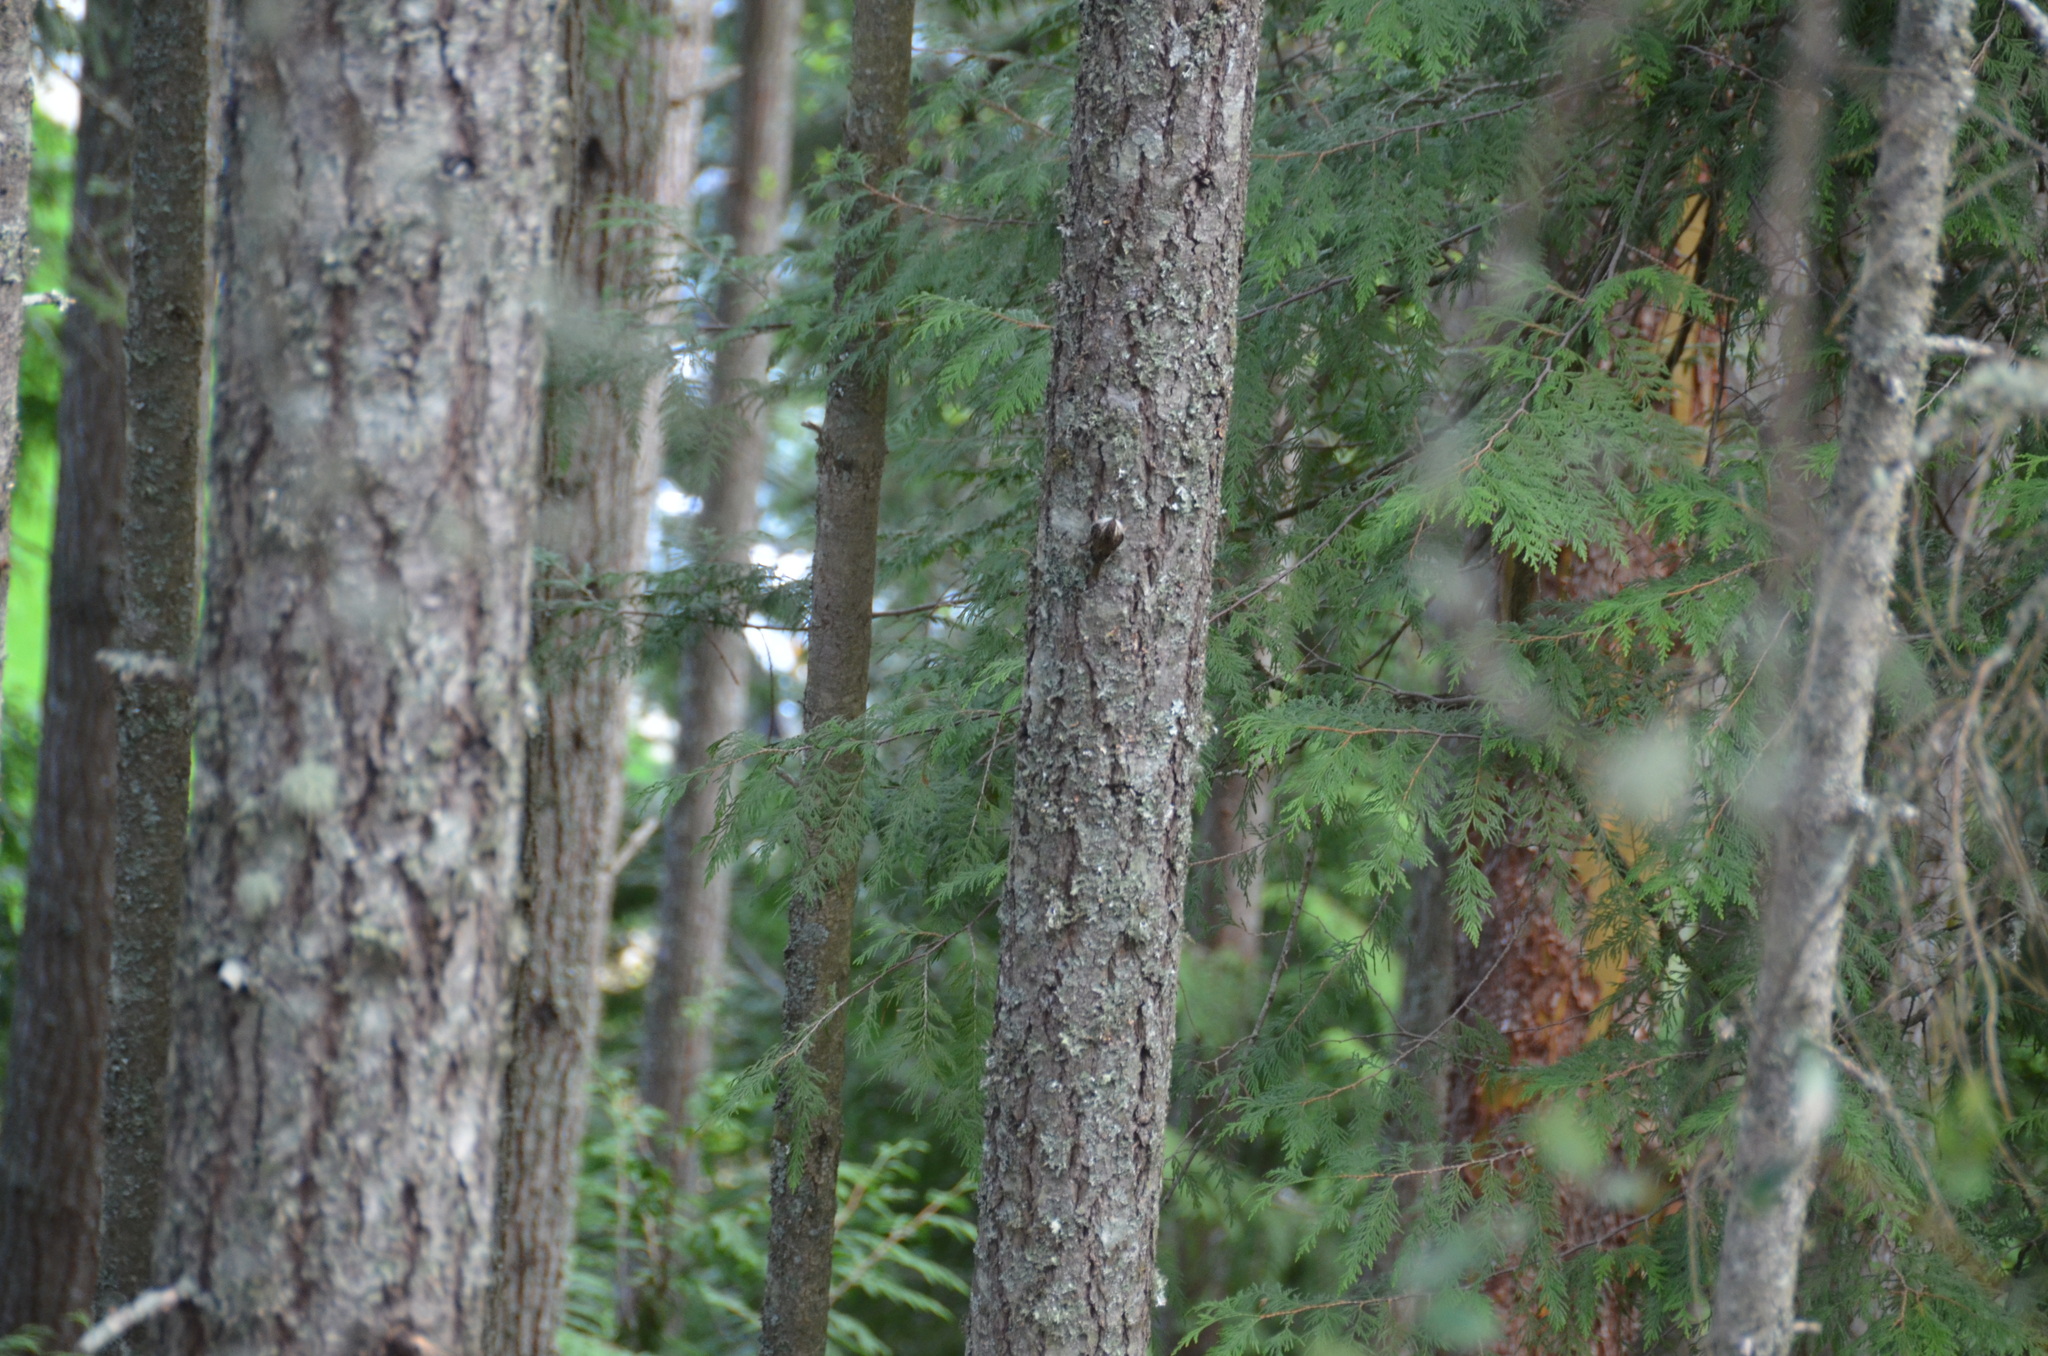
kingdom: Animalia
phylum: Chordata
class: Aves
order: Passeriformes
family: Certhiidae
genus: Certhia
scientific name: Certhia americana
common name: Brown creeper
